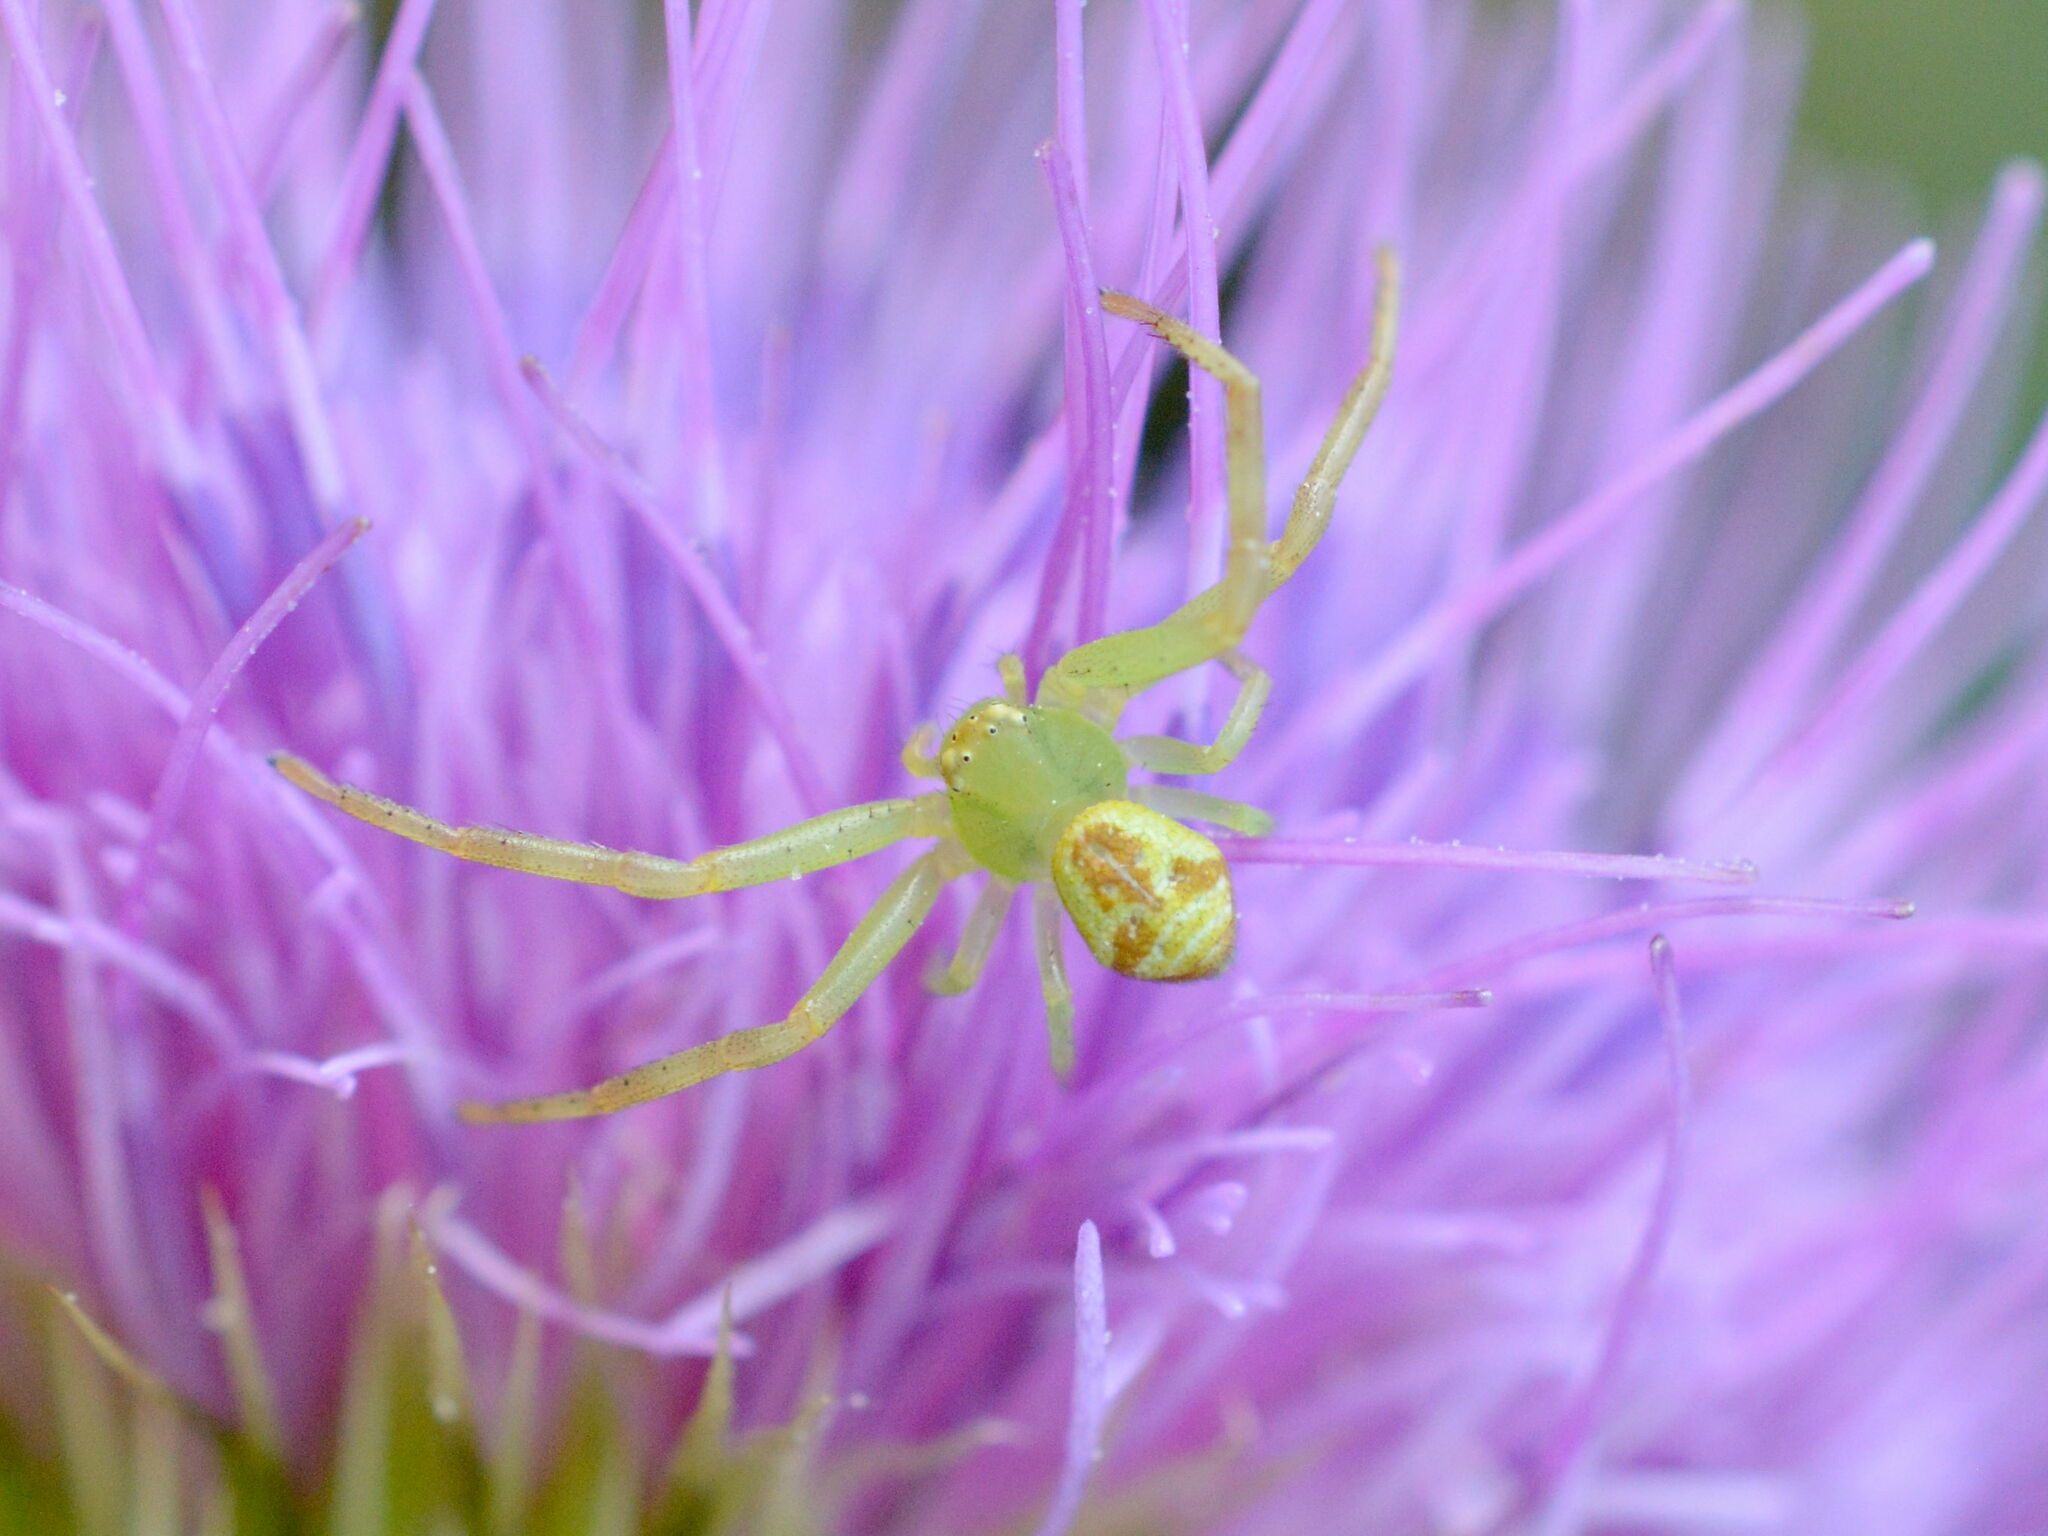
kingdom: Animalia
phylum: Arthropoda
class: Arachnida
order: Araneae
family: Thomisidae
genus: Ebrechtella
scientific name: Ebrechtella tricuspidata
